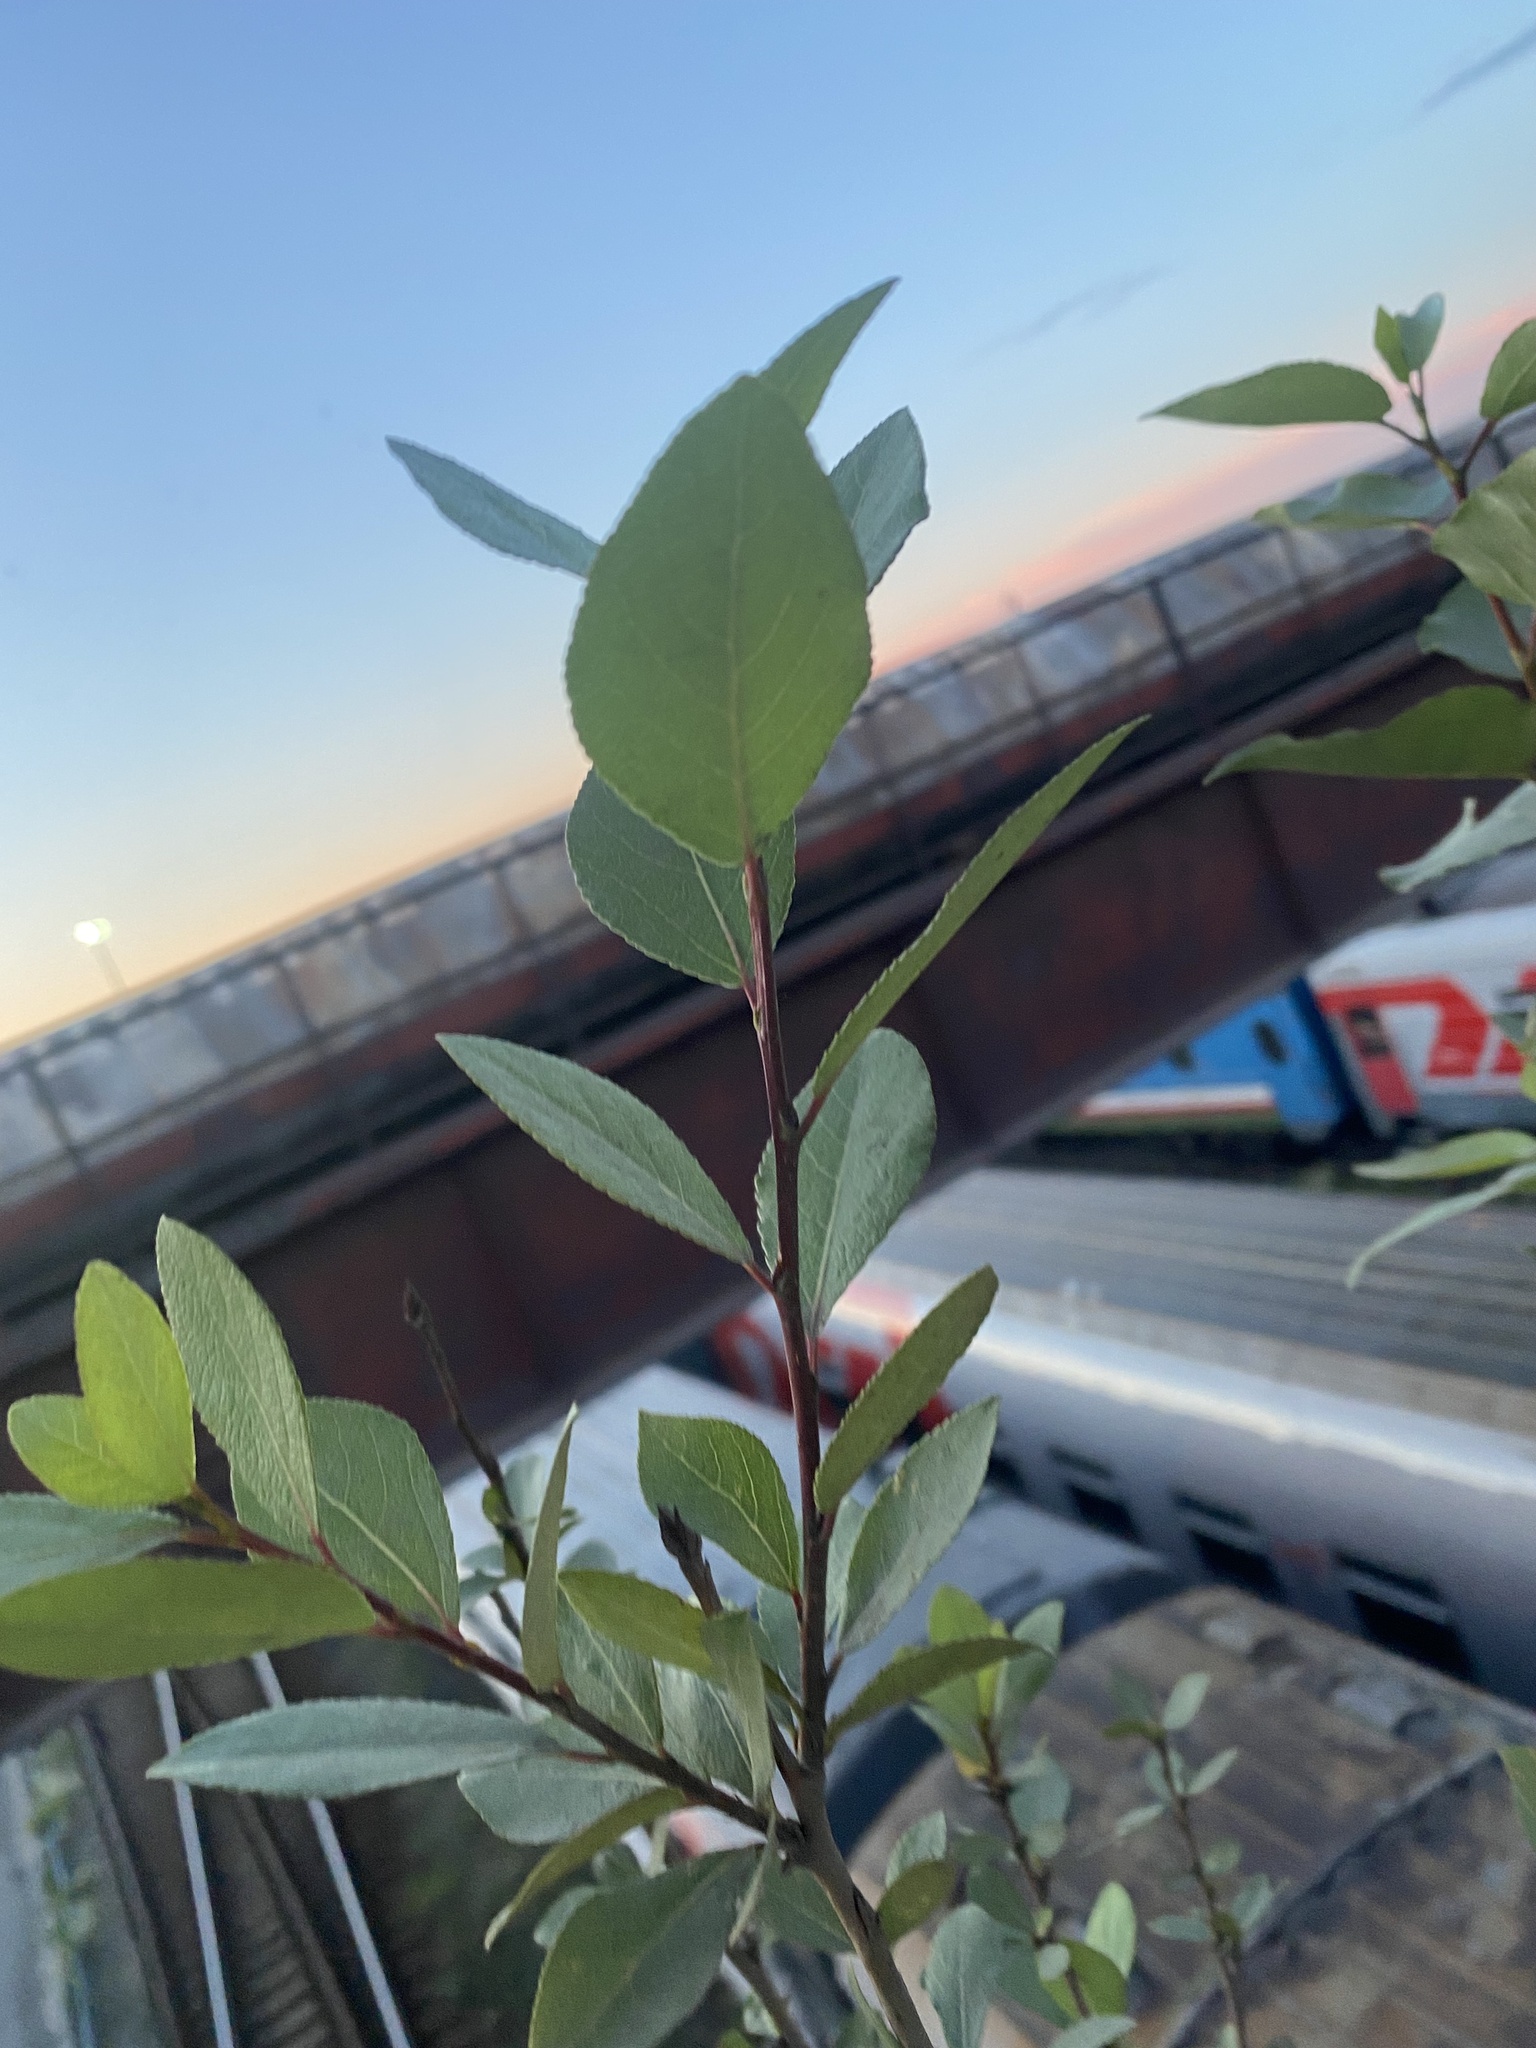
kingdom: Plantae
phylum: Tracheophyta
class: Magnoliopsida
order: Malpighiales
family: Salicaceae
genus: Populus
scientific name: Populus laurifolia
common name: Laurel-leaf poplar
